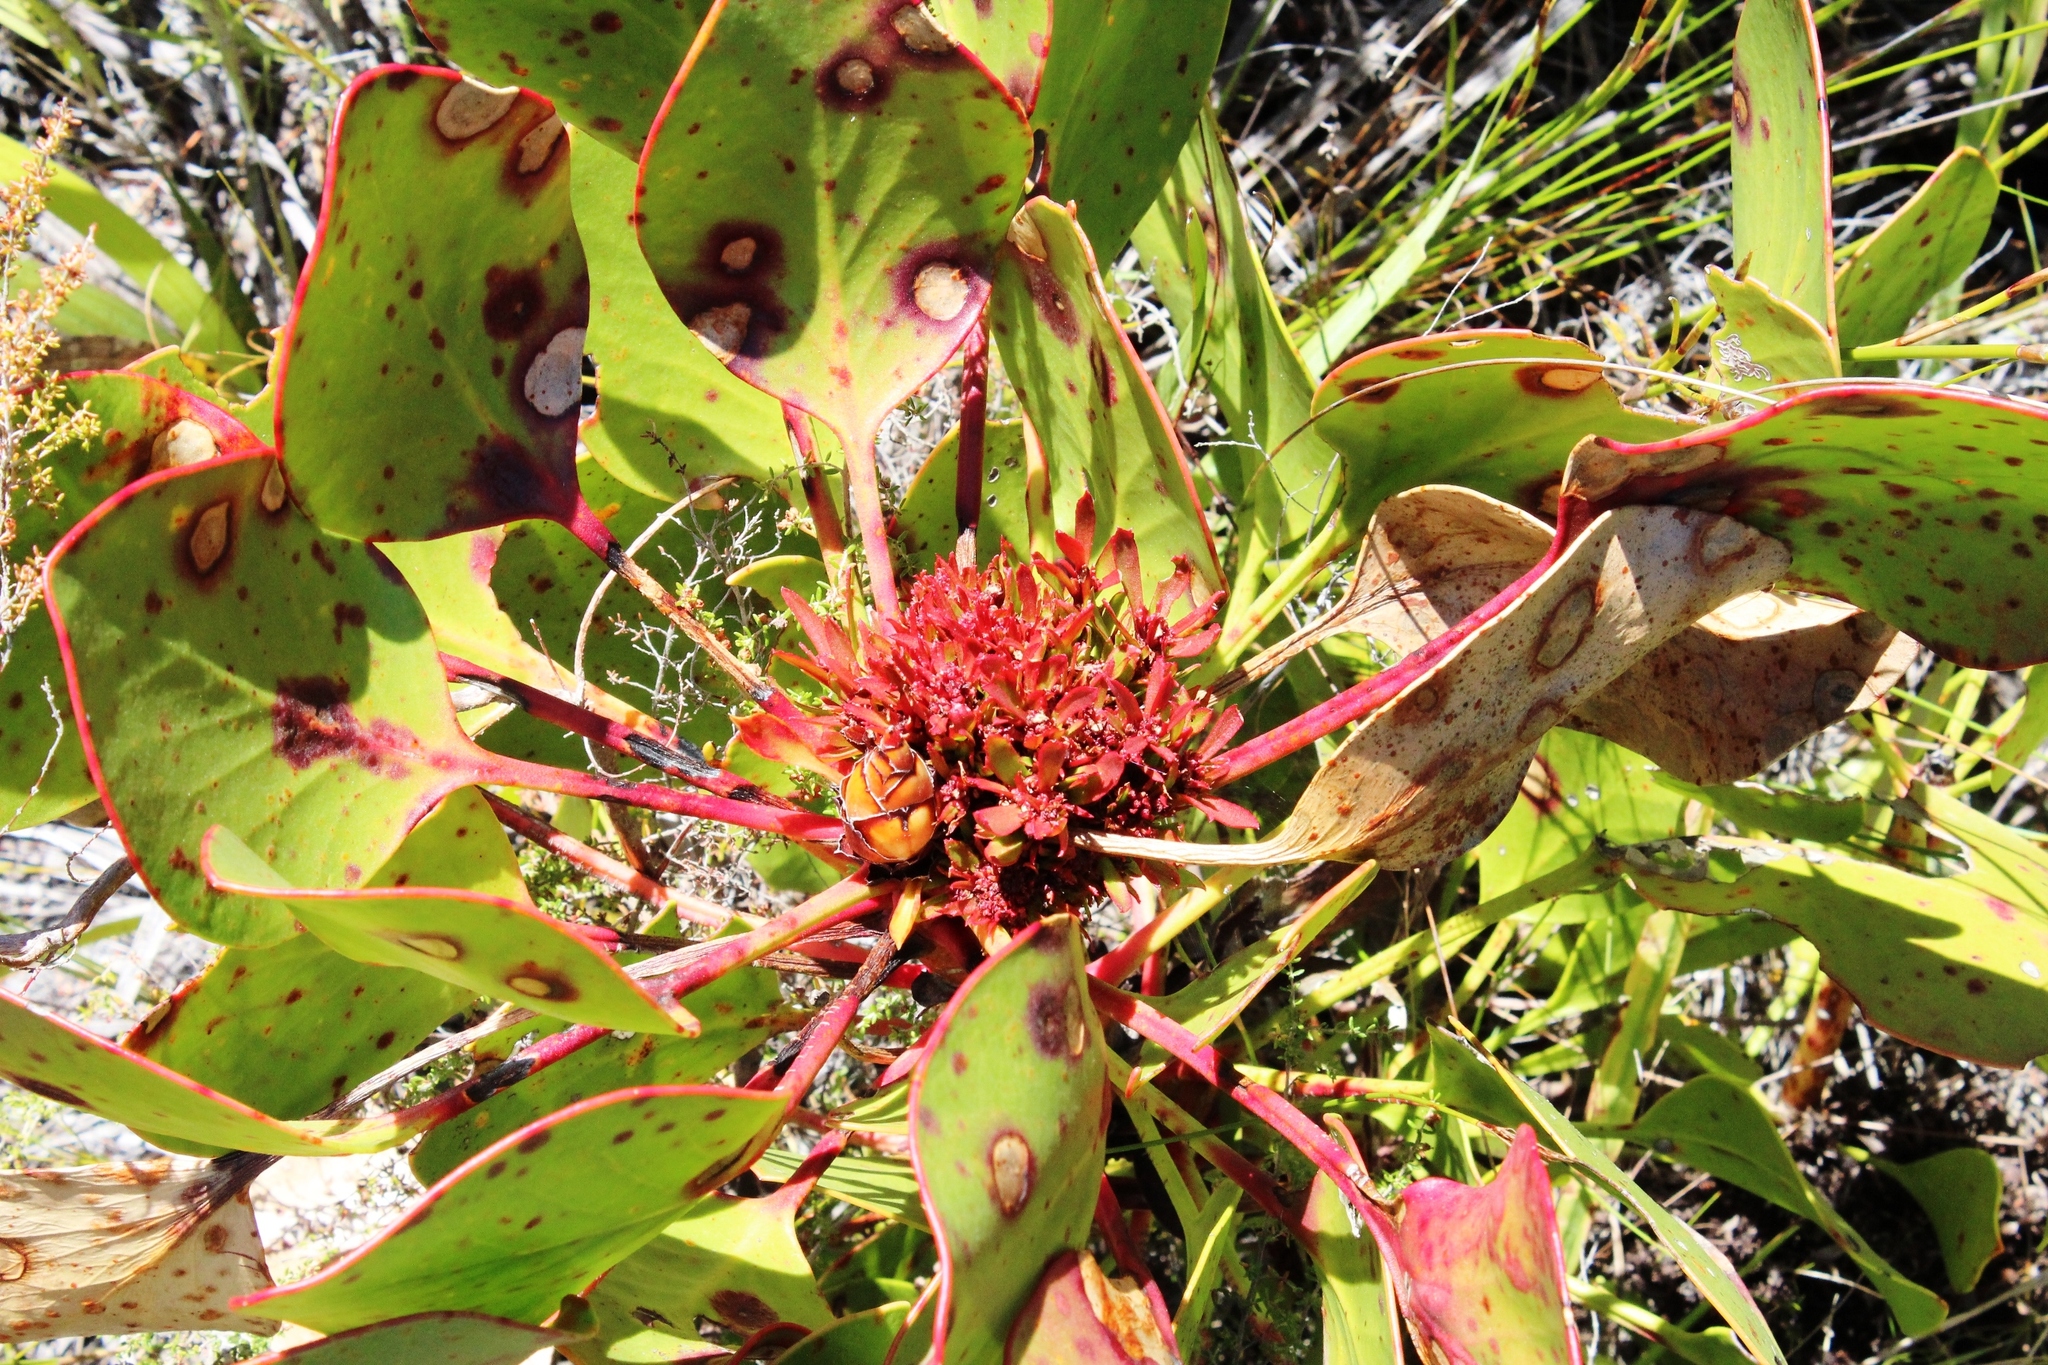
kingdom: Bacteria
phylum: Firmicutes
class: Bacilli
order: Acholeplasmatales
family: Acholeplasmataceae
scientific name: Acholeplasmataceae
